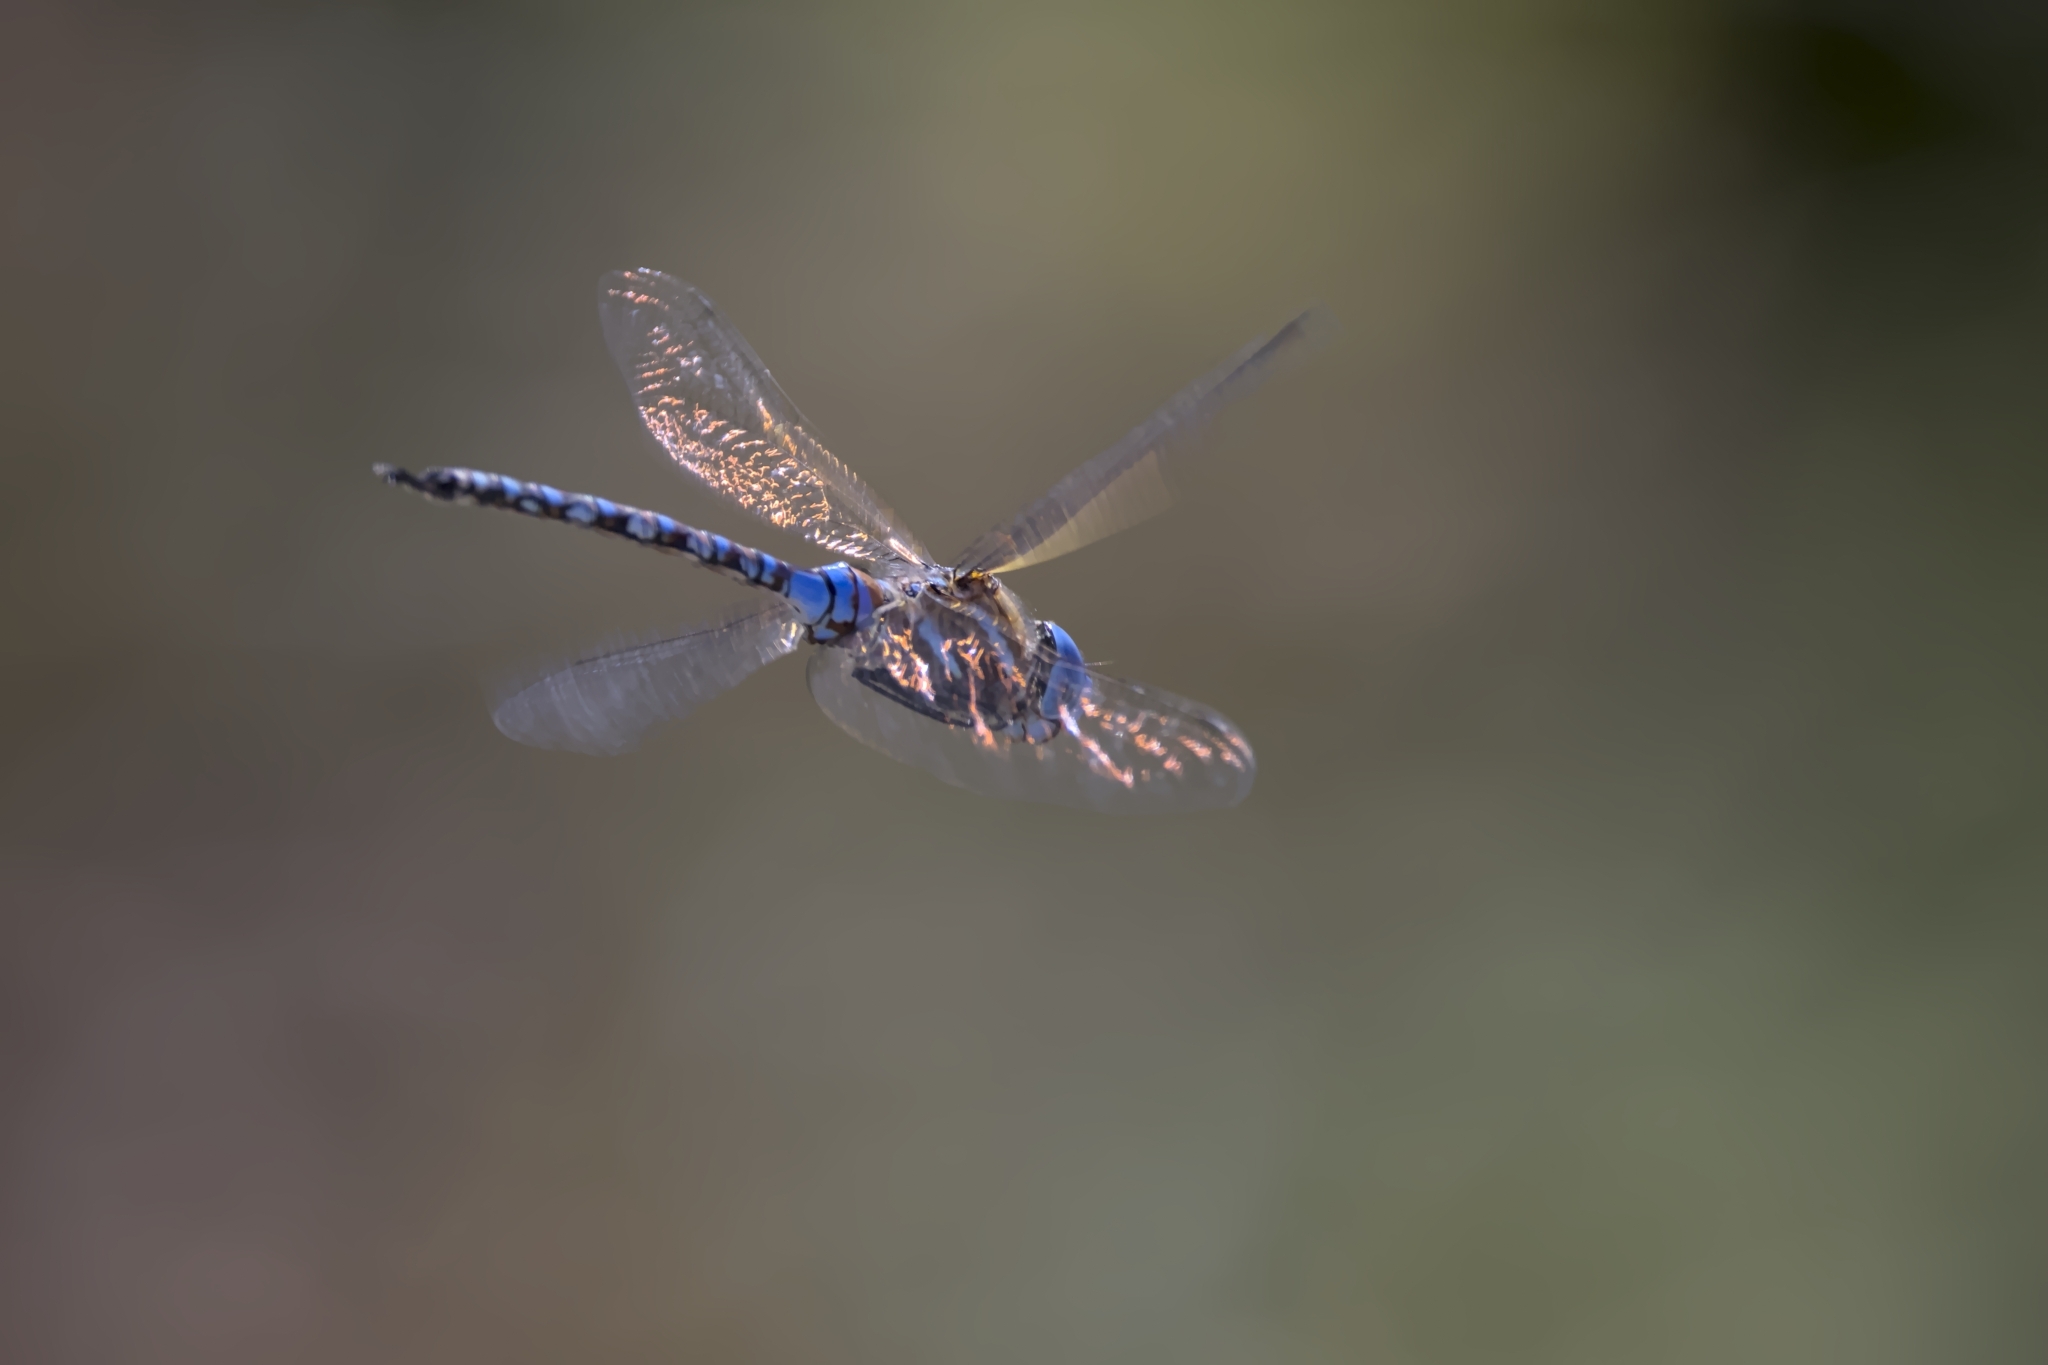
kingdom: Animalia
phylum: Arthropoda
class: Insecta
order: Odonata
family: Aeshnidae
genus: Rhionaeschna
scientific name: Rhionaeschna multicolor
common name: Blue-eyed darner
